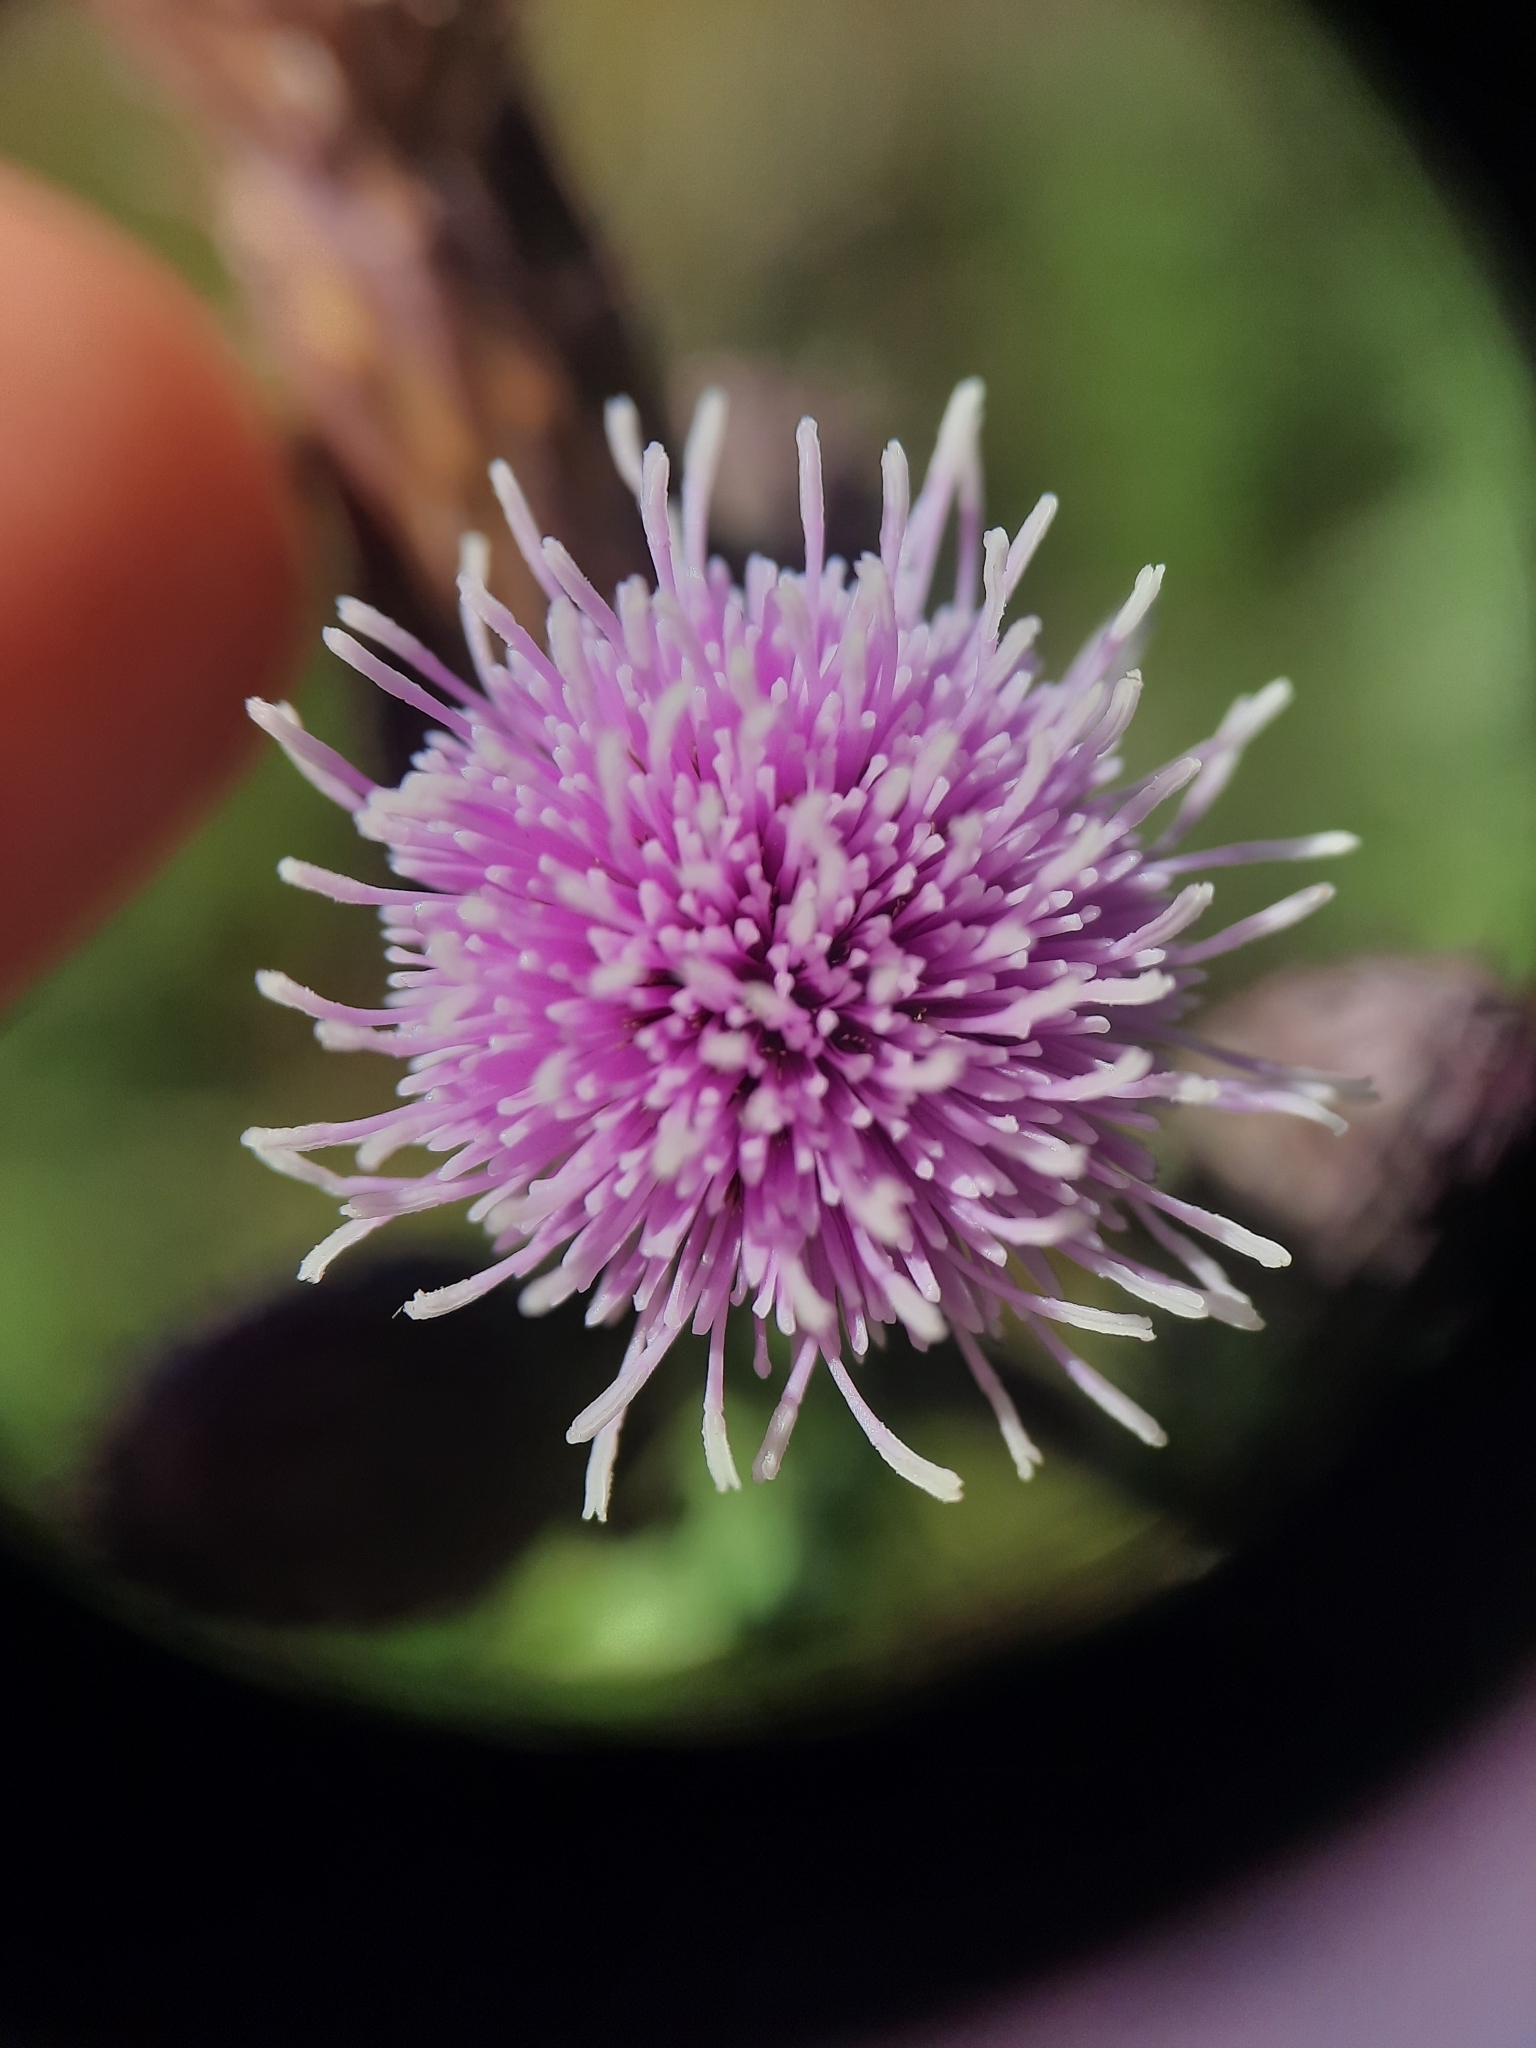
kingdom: Plantae
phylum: Tracheophyta
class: Magnoliopsida
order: Asterales
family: Asteraceae
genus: Cirsium
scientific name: Cirsium arvense
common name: Creeping thistle
